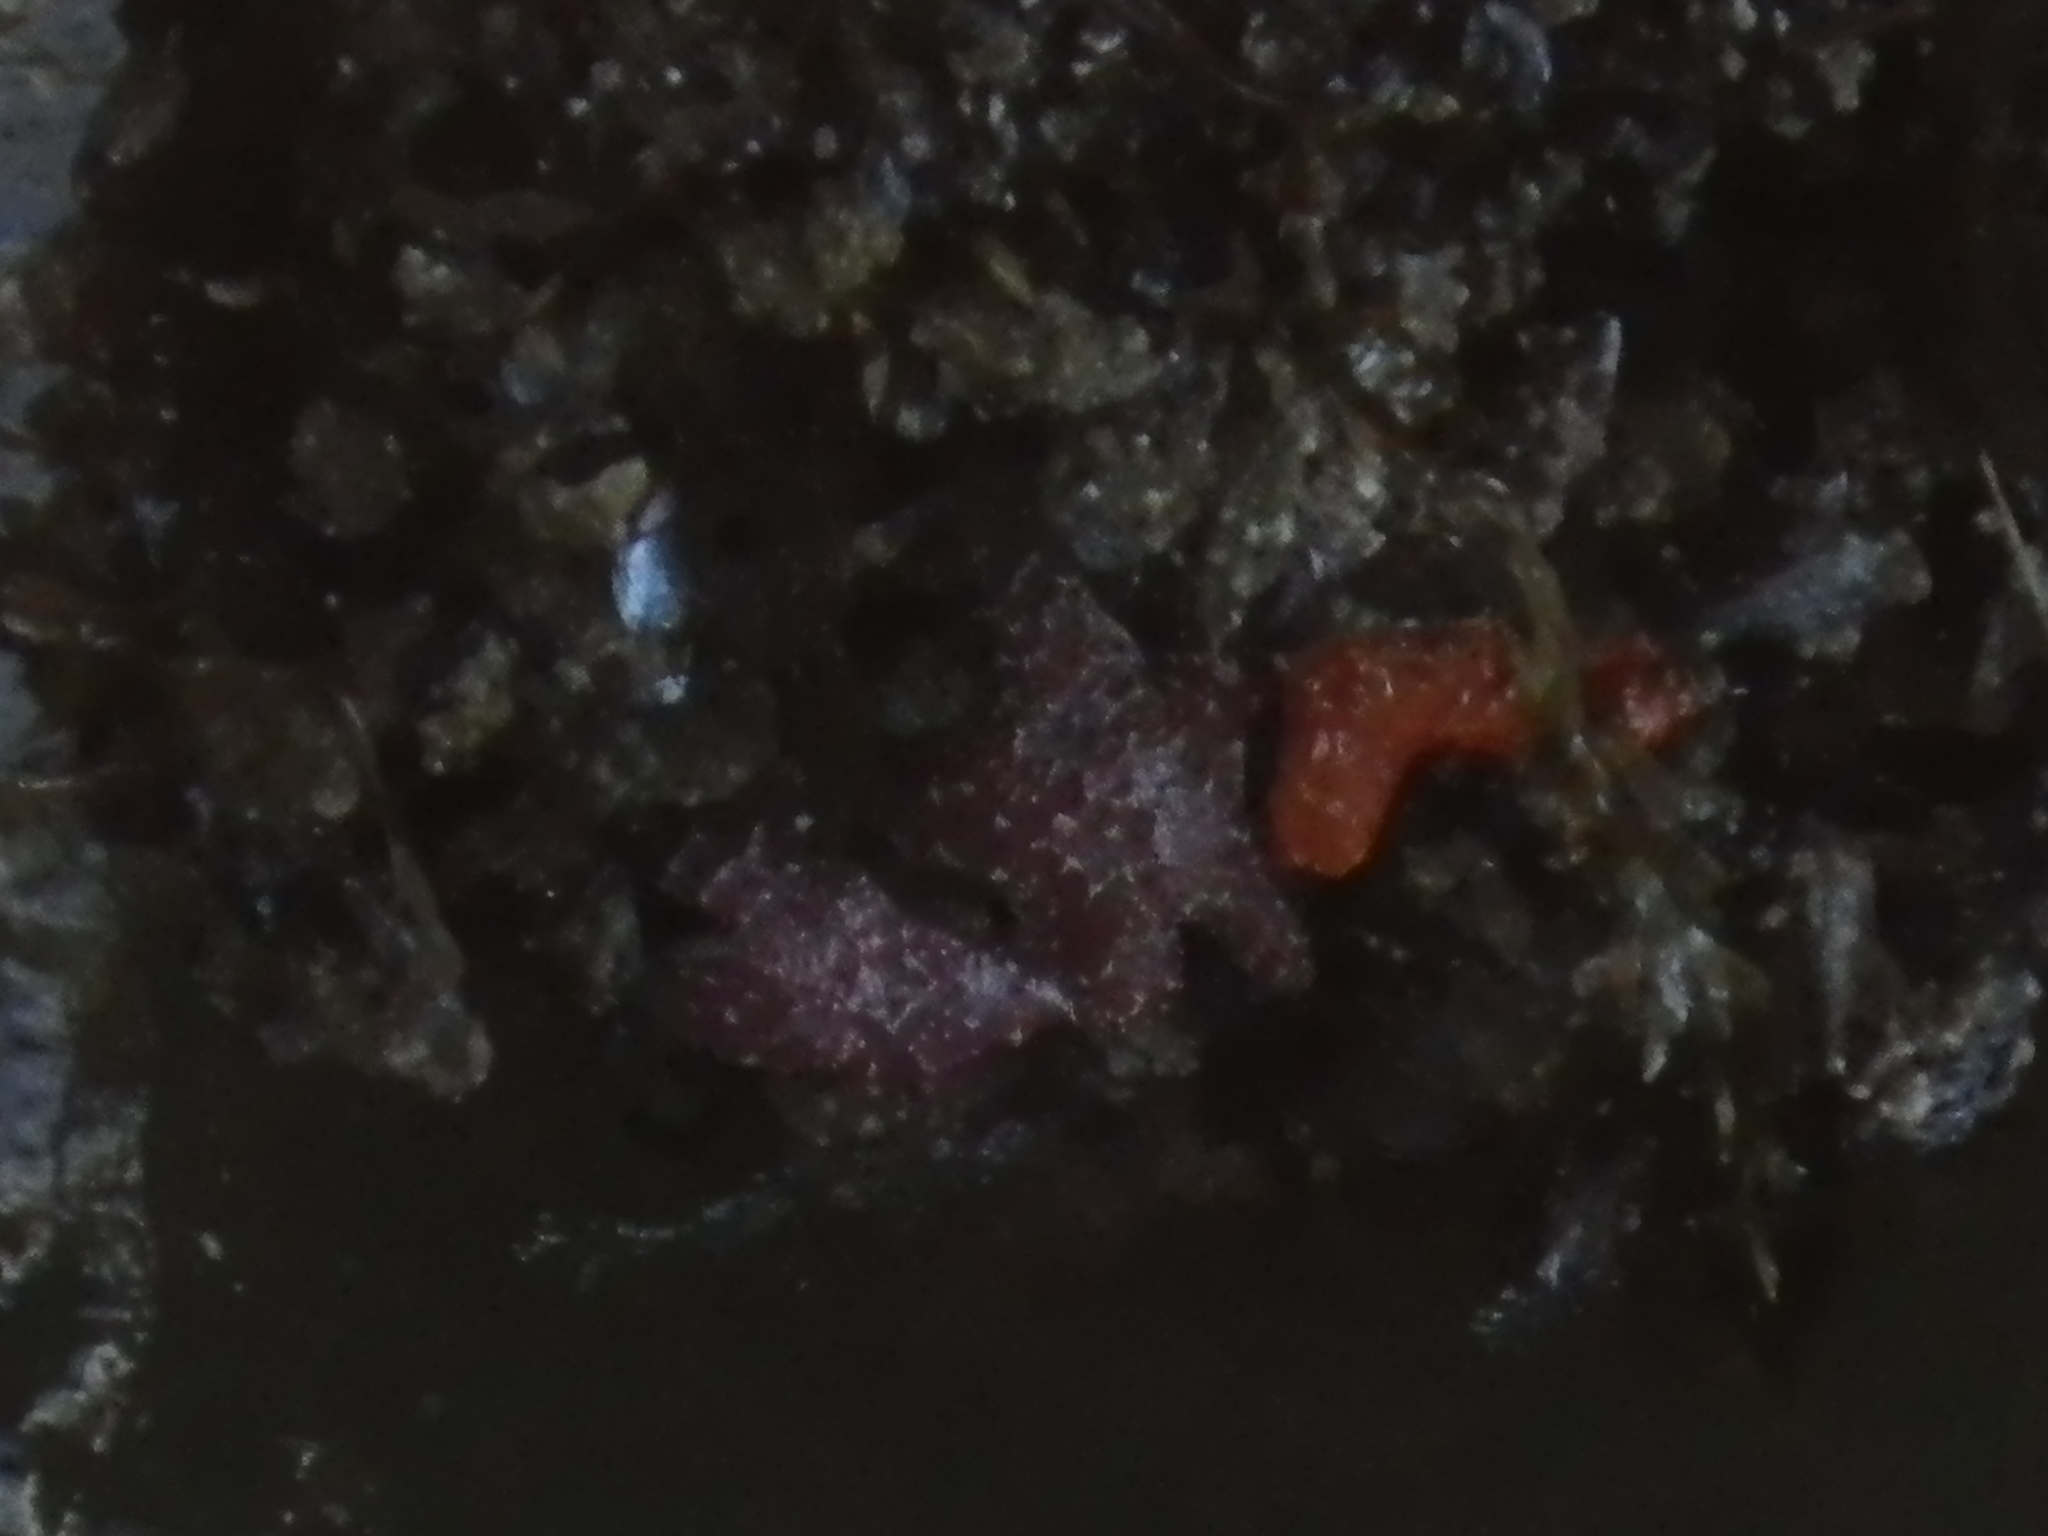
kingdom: Animalia
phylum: Echinodermata
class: Asteroidea
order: Forcipulatida
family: Asteriidae
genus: Pisaster
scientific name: Pisaster ochraceus
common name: Ochre stars
